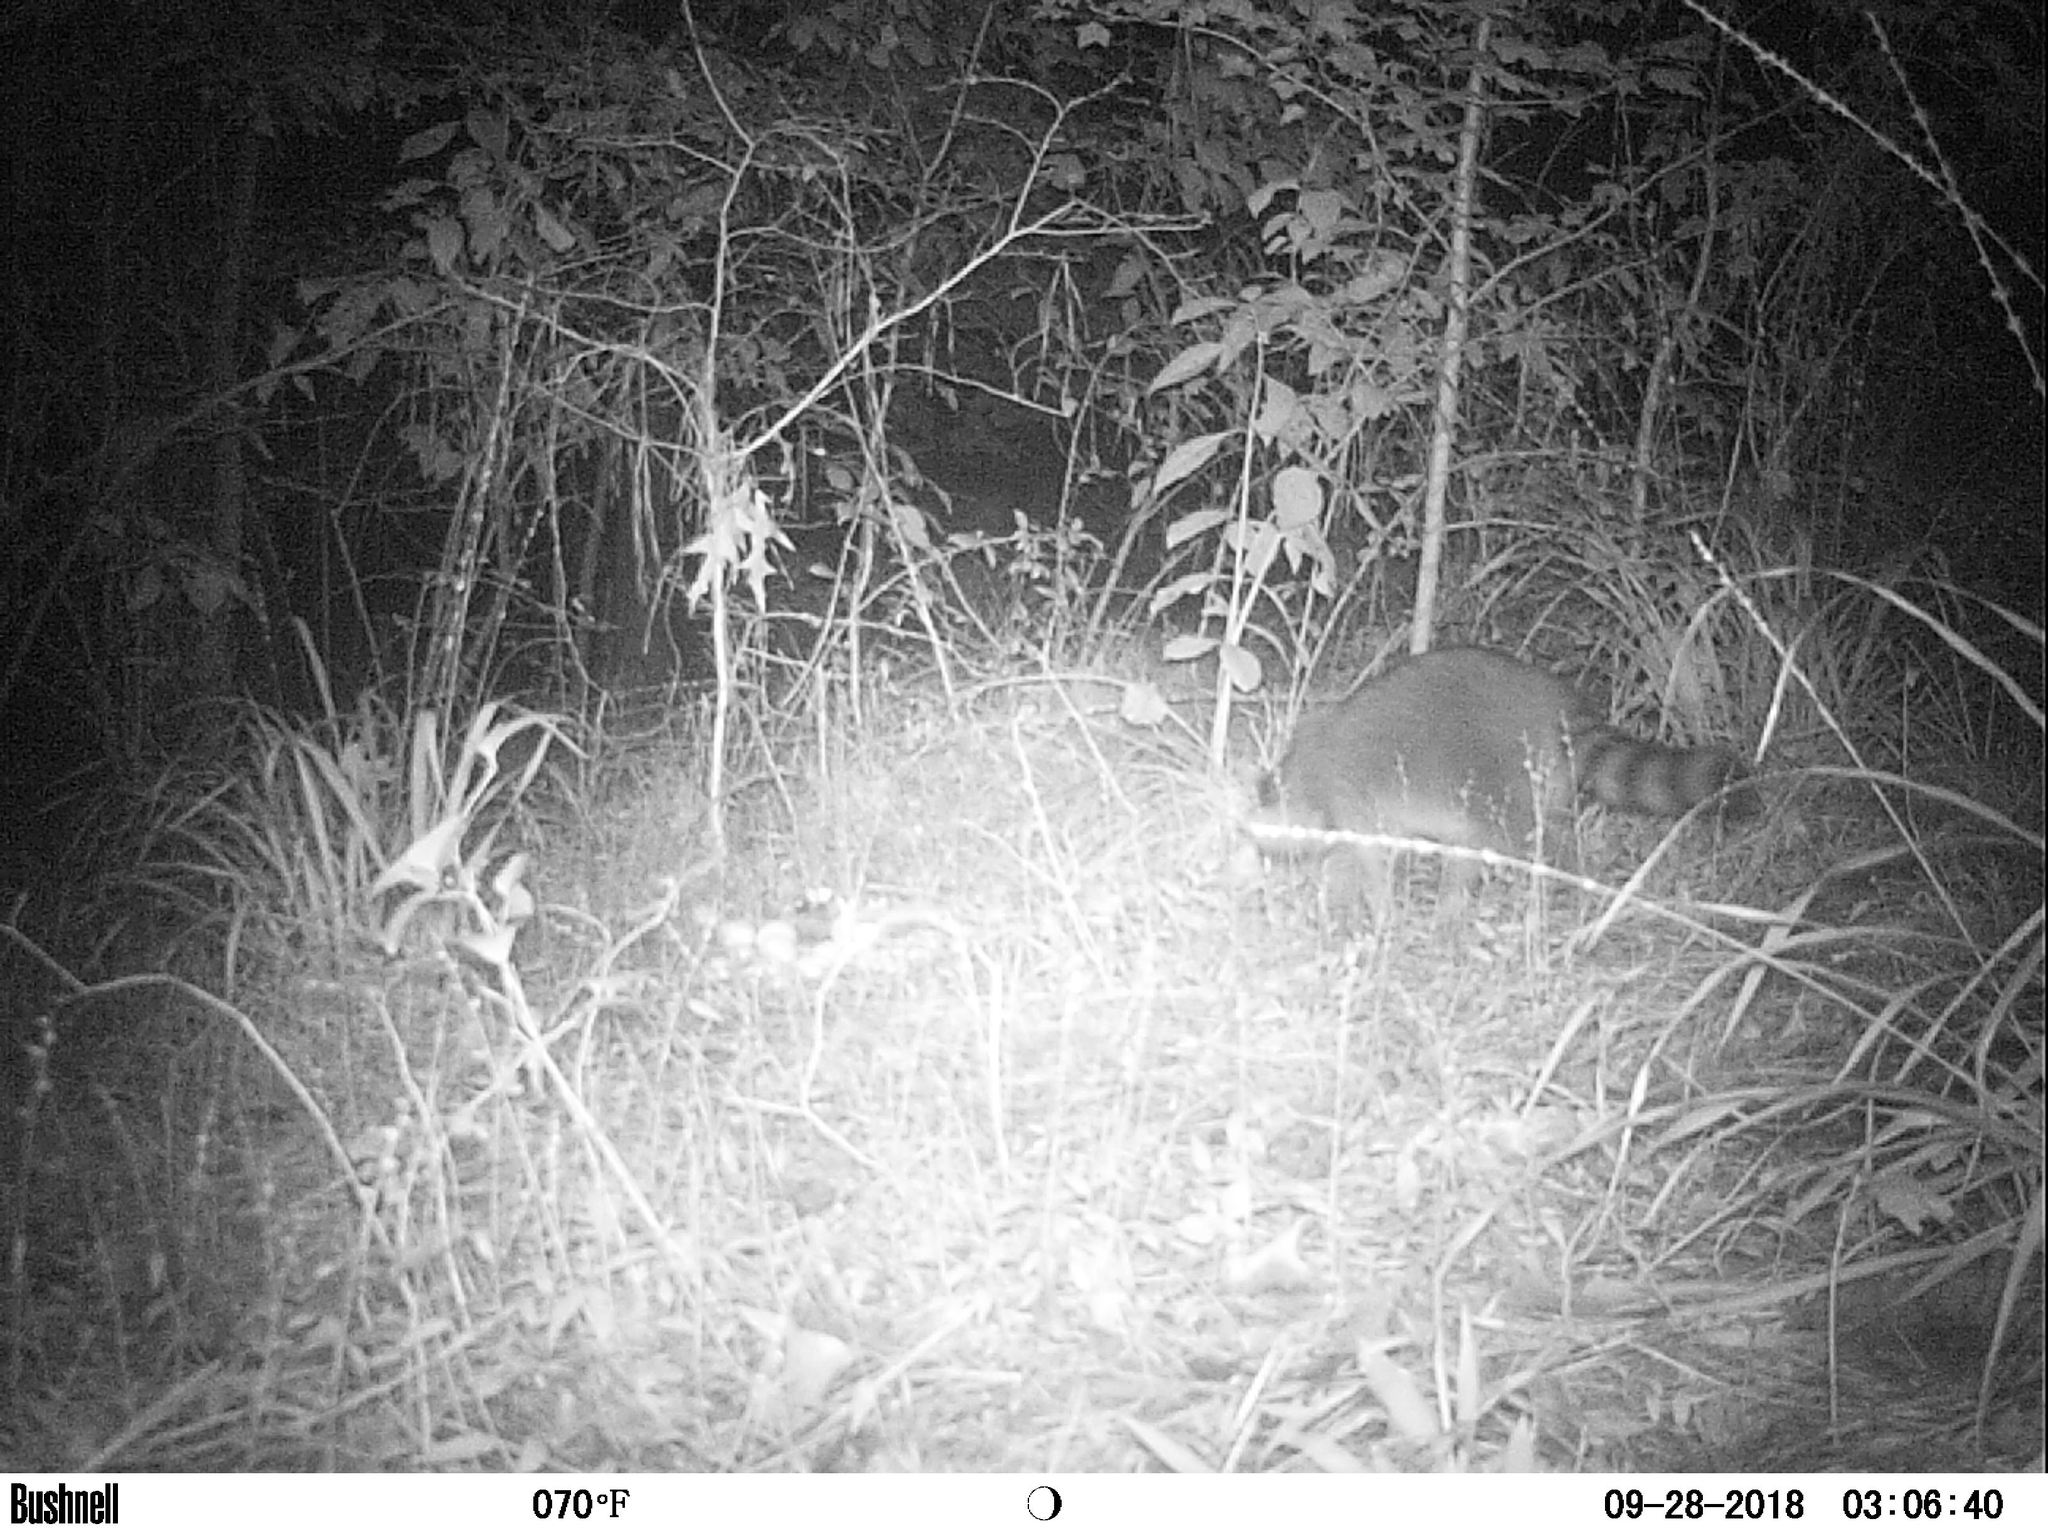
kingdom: Animalia
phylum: Chordata
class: Mammalia
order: Carnivora
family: Procyonidae
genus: Procyon
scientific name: Procyon lotor
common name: Raccoon
